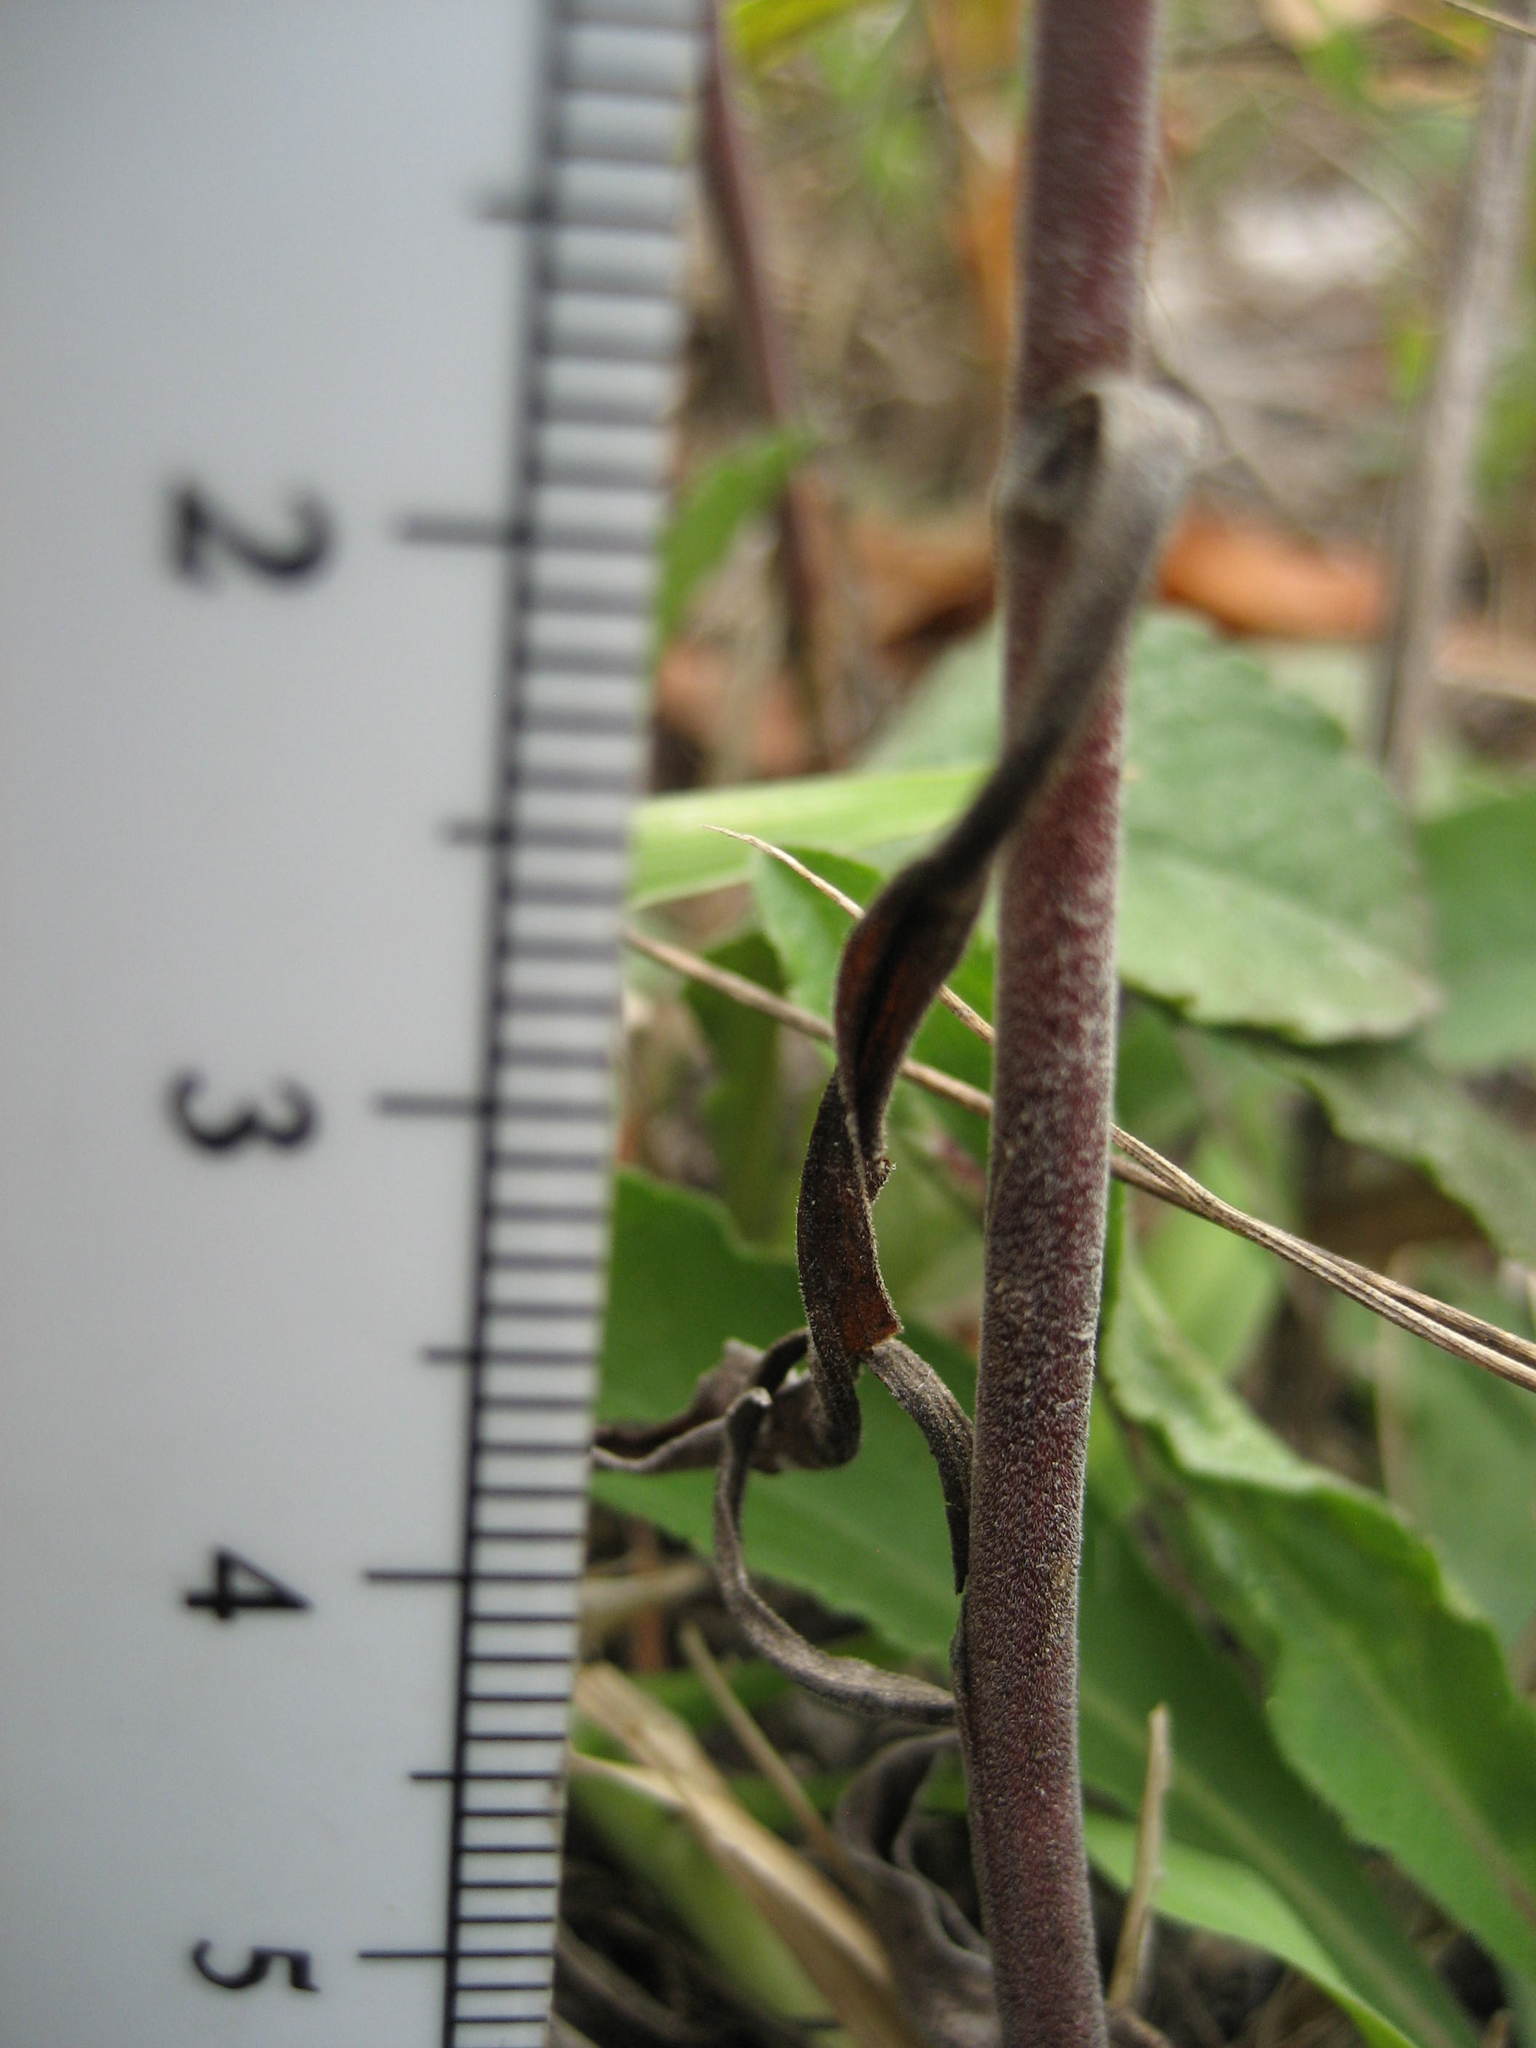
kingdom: Plantae
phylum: Tracheophyta
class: Magnoliopsida
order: Asterales
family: Asteraceae
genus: Solidago
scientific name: Solidago nemoralis
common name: Grey goldenrod
